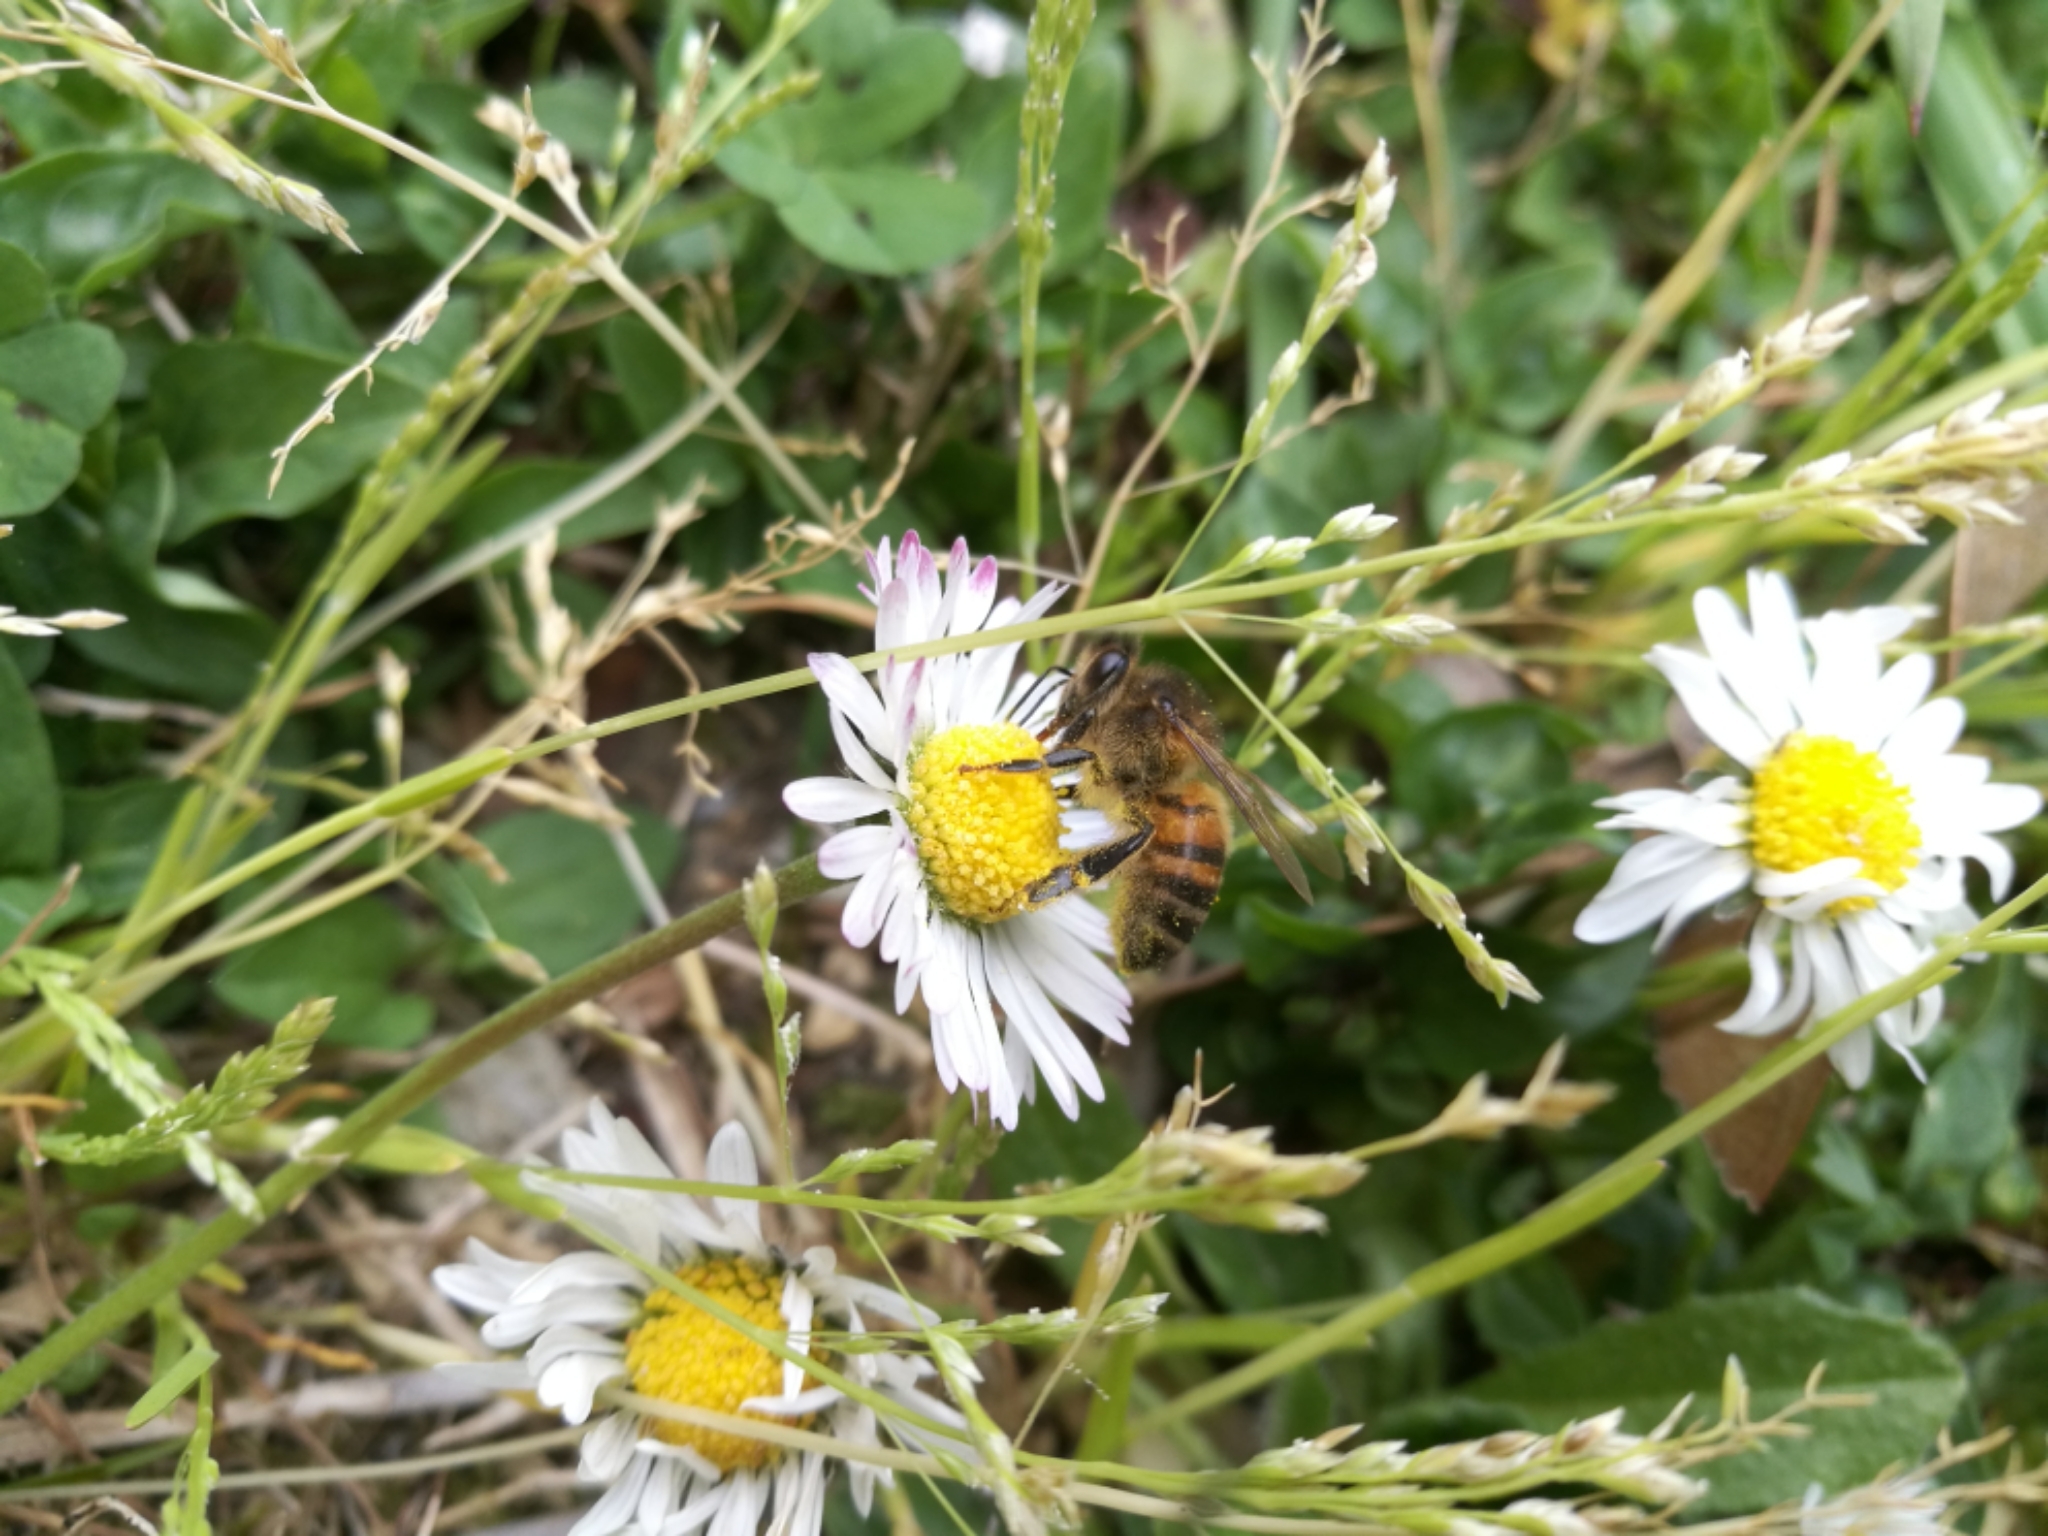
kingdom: Plantae
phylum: Tracheophyta
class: Magnoliopsida
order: Asterales
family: Asteraceae
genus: Bellis
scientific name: Bellis perennis
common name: Lawndaisy
